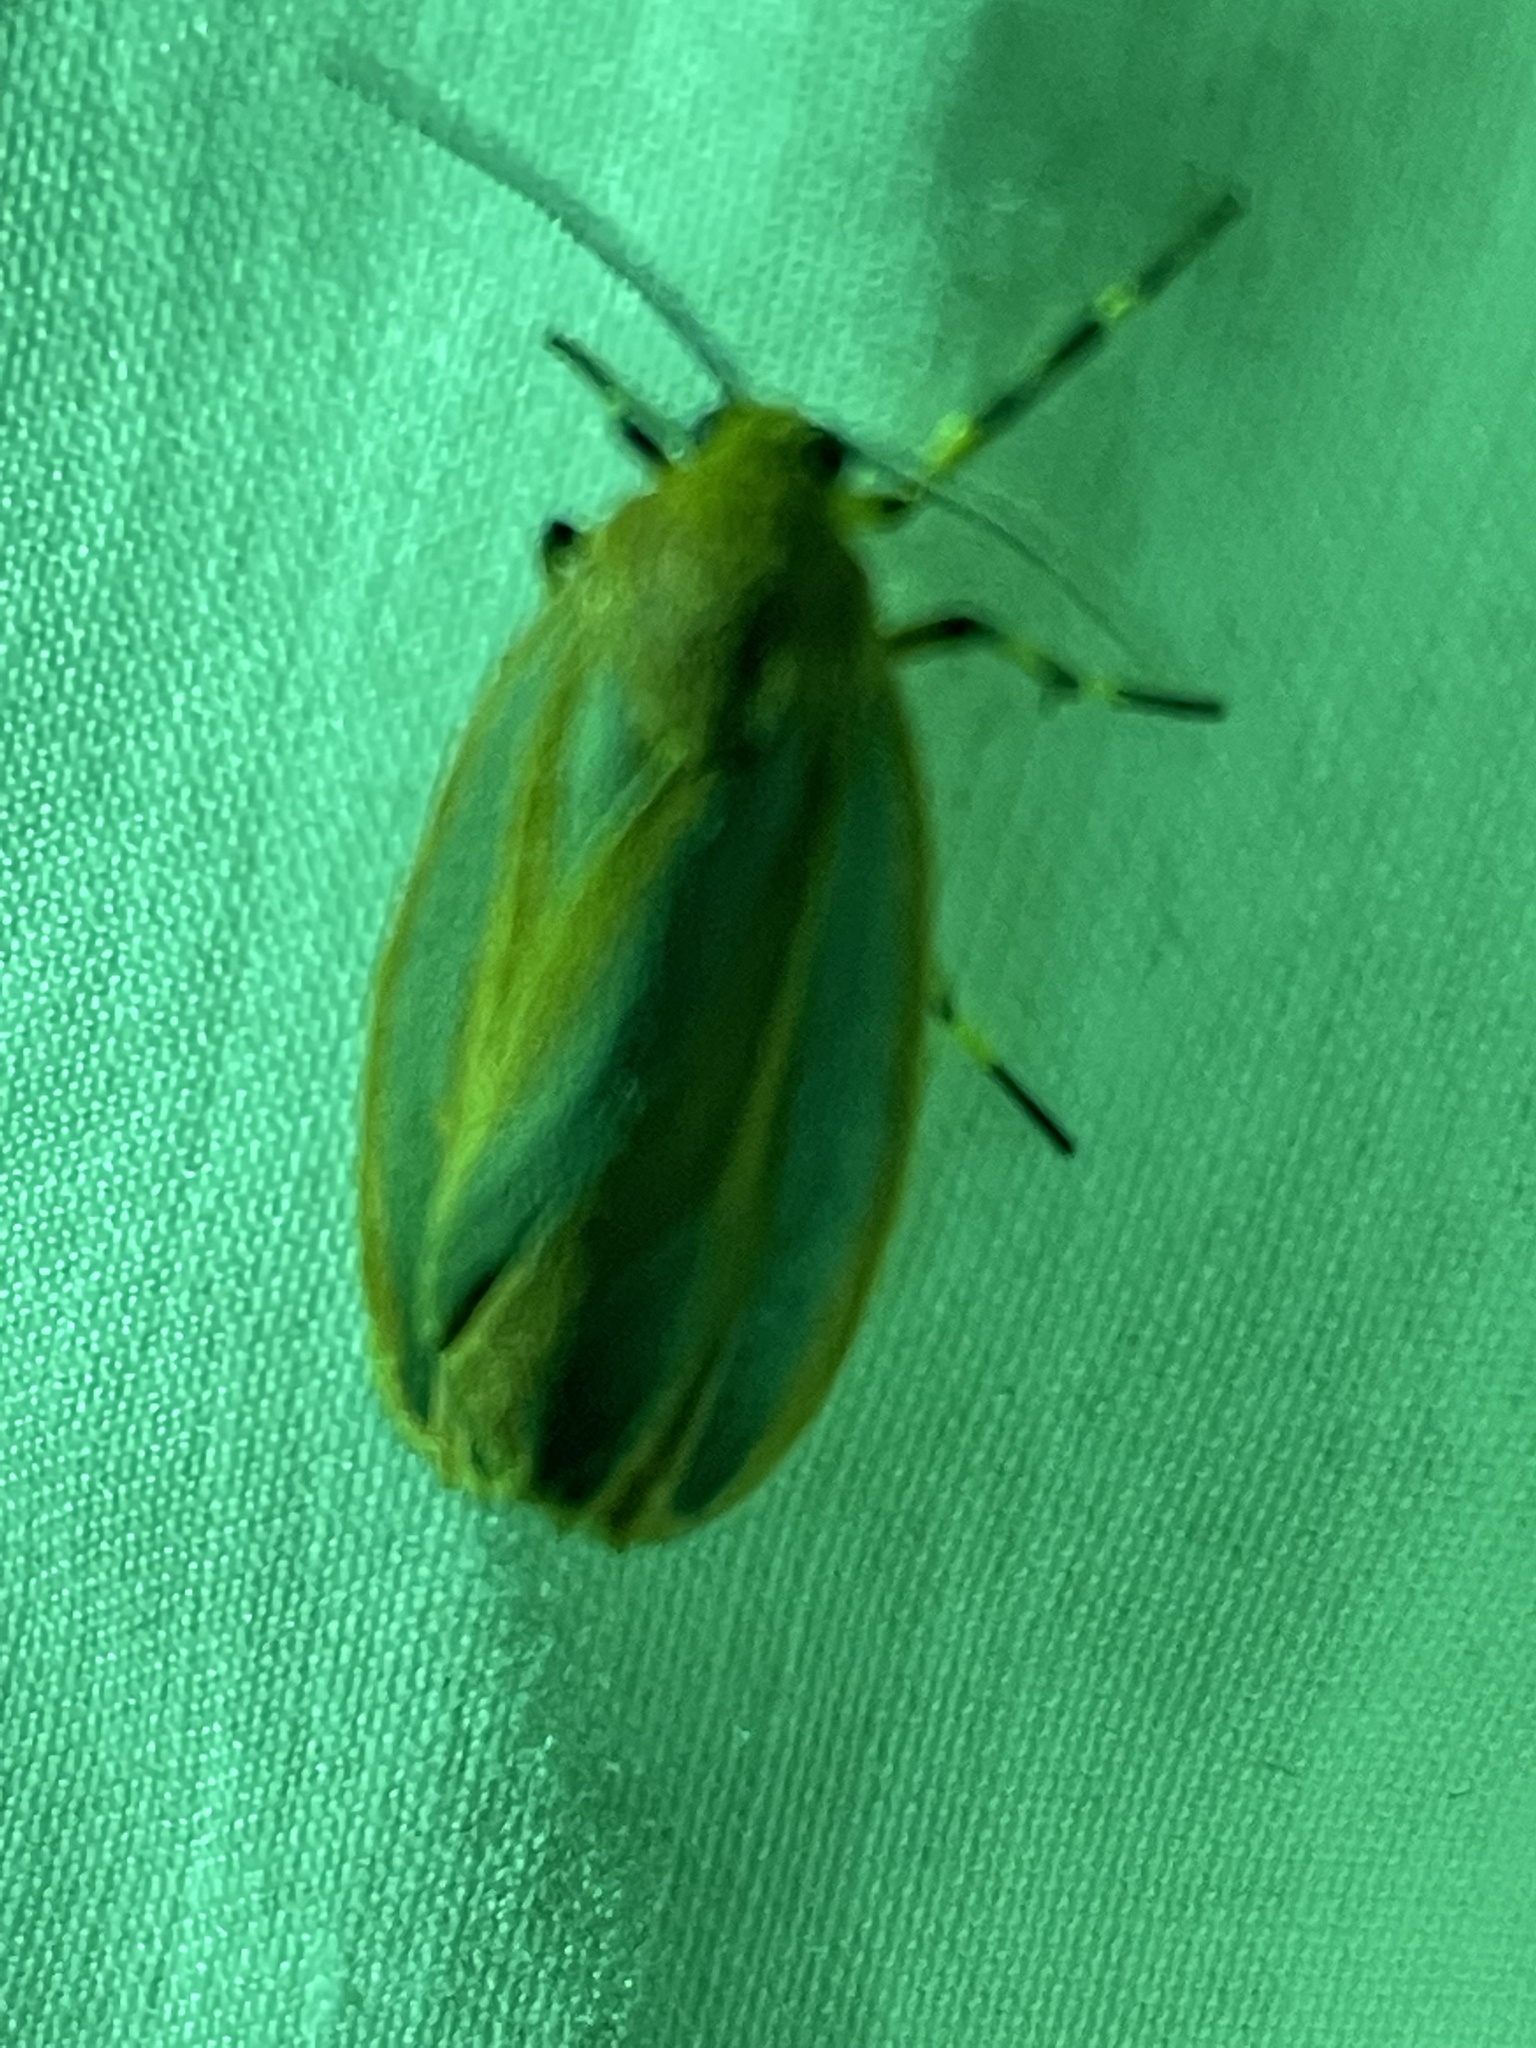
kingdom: Animalia
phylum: Arthropoda
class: Insecta
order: Lepidoptera
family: Erebidae
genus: Hypoprepia
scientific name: Hypoprepia fucosa
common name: Painted lichen moth
